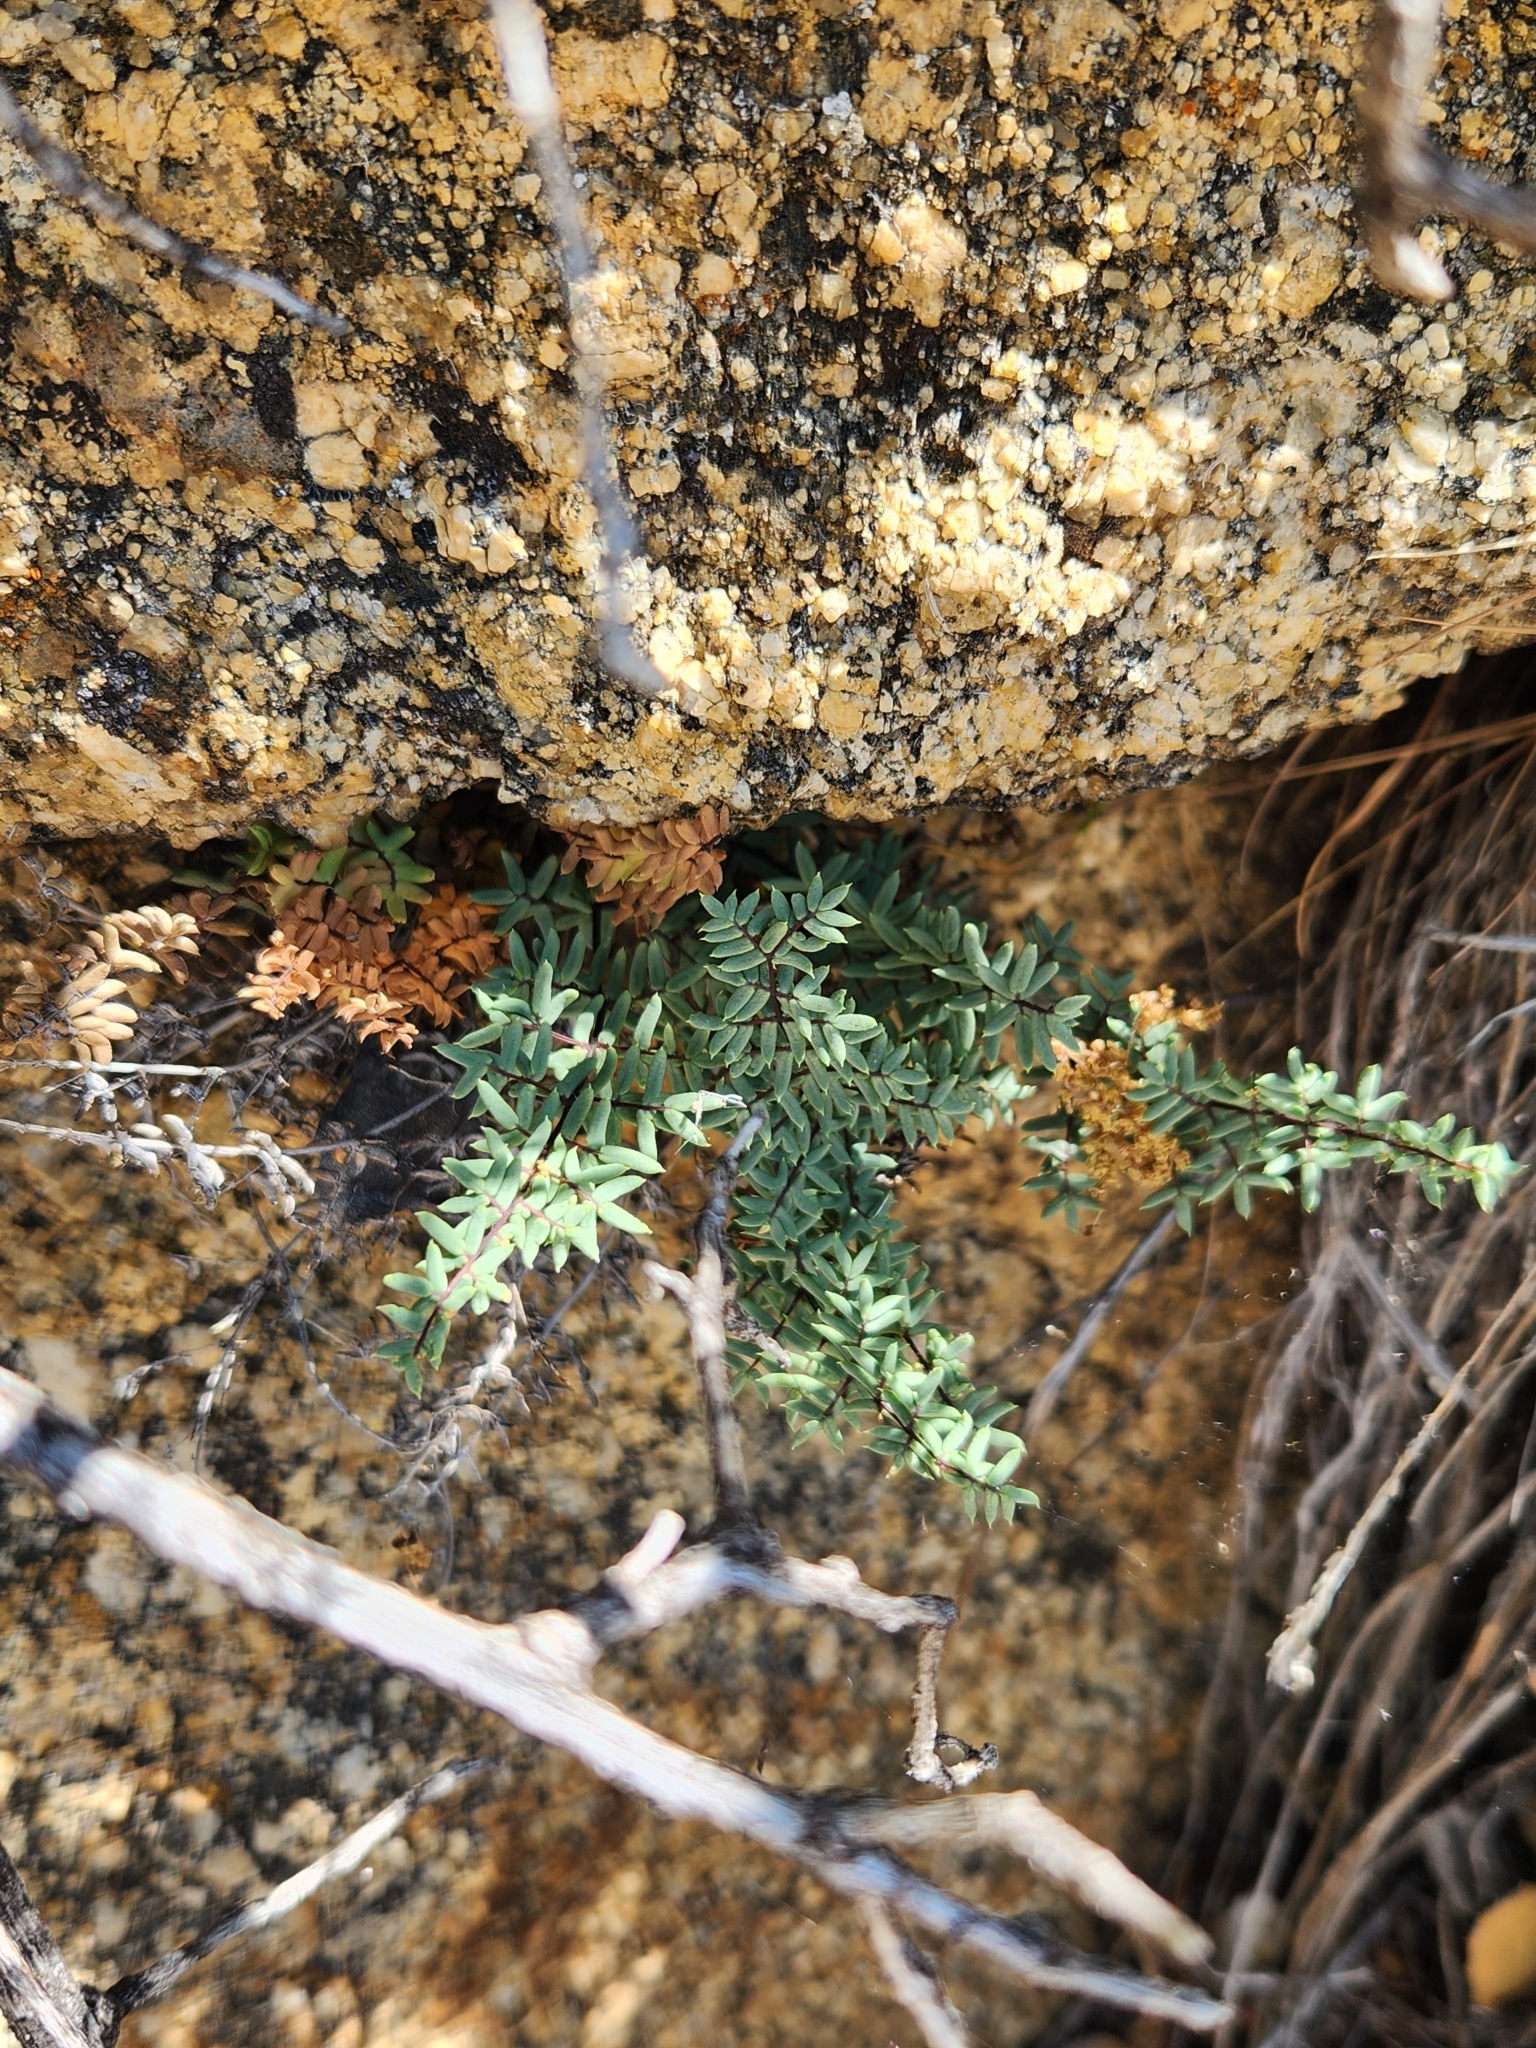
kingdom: Plantae
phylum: Tracheophyta
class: Polypodiopsida
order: Polypodiales
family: Pteridaceae
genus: Pellaea
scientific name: Pellaea mucronata
